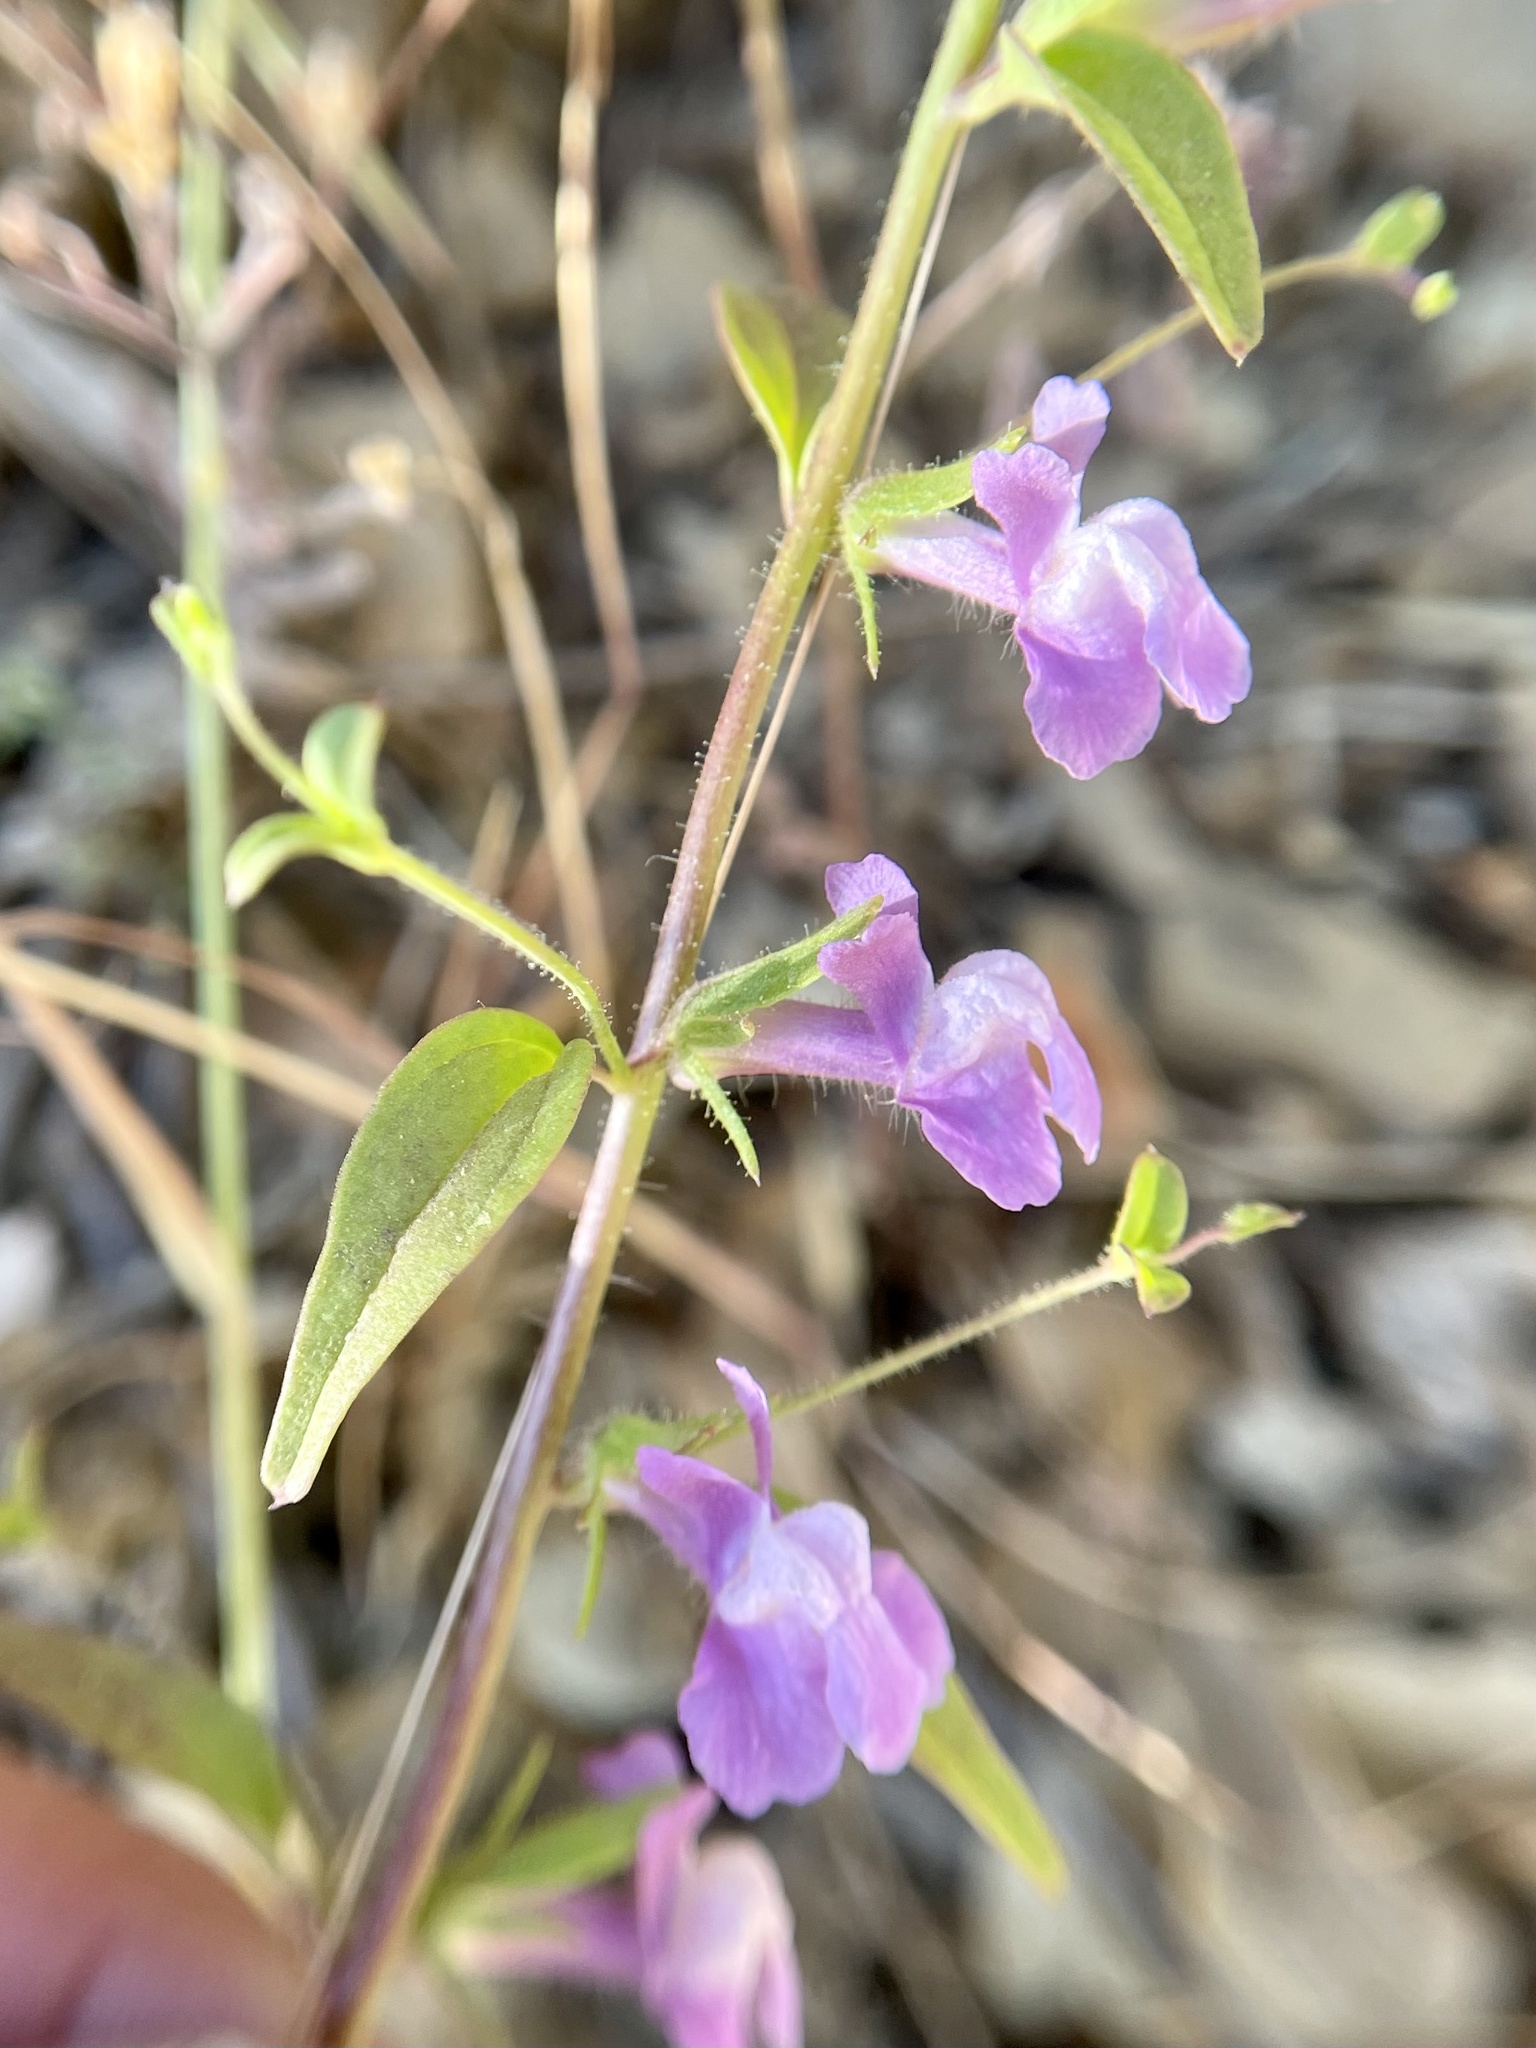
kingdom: Plantae
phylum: Tracheophyta
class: Magnoliopsida
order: Lamiales
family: Plantaginaceae
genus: Sairocarpus
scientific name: Sairocarpus vexillocalyculatus
